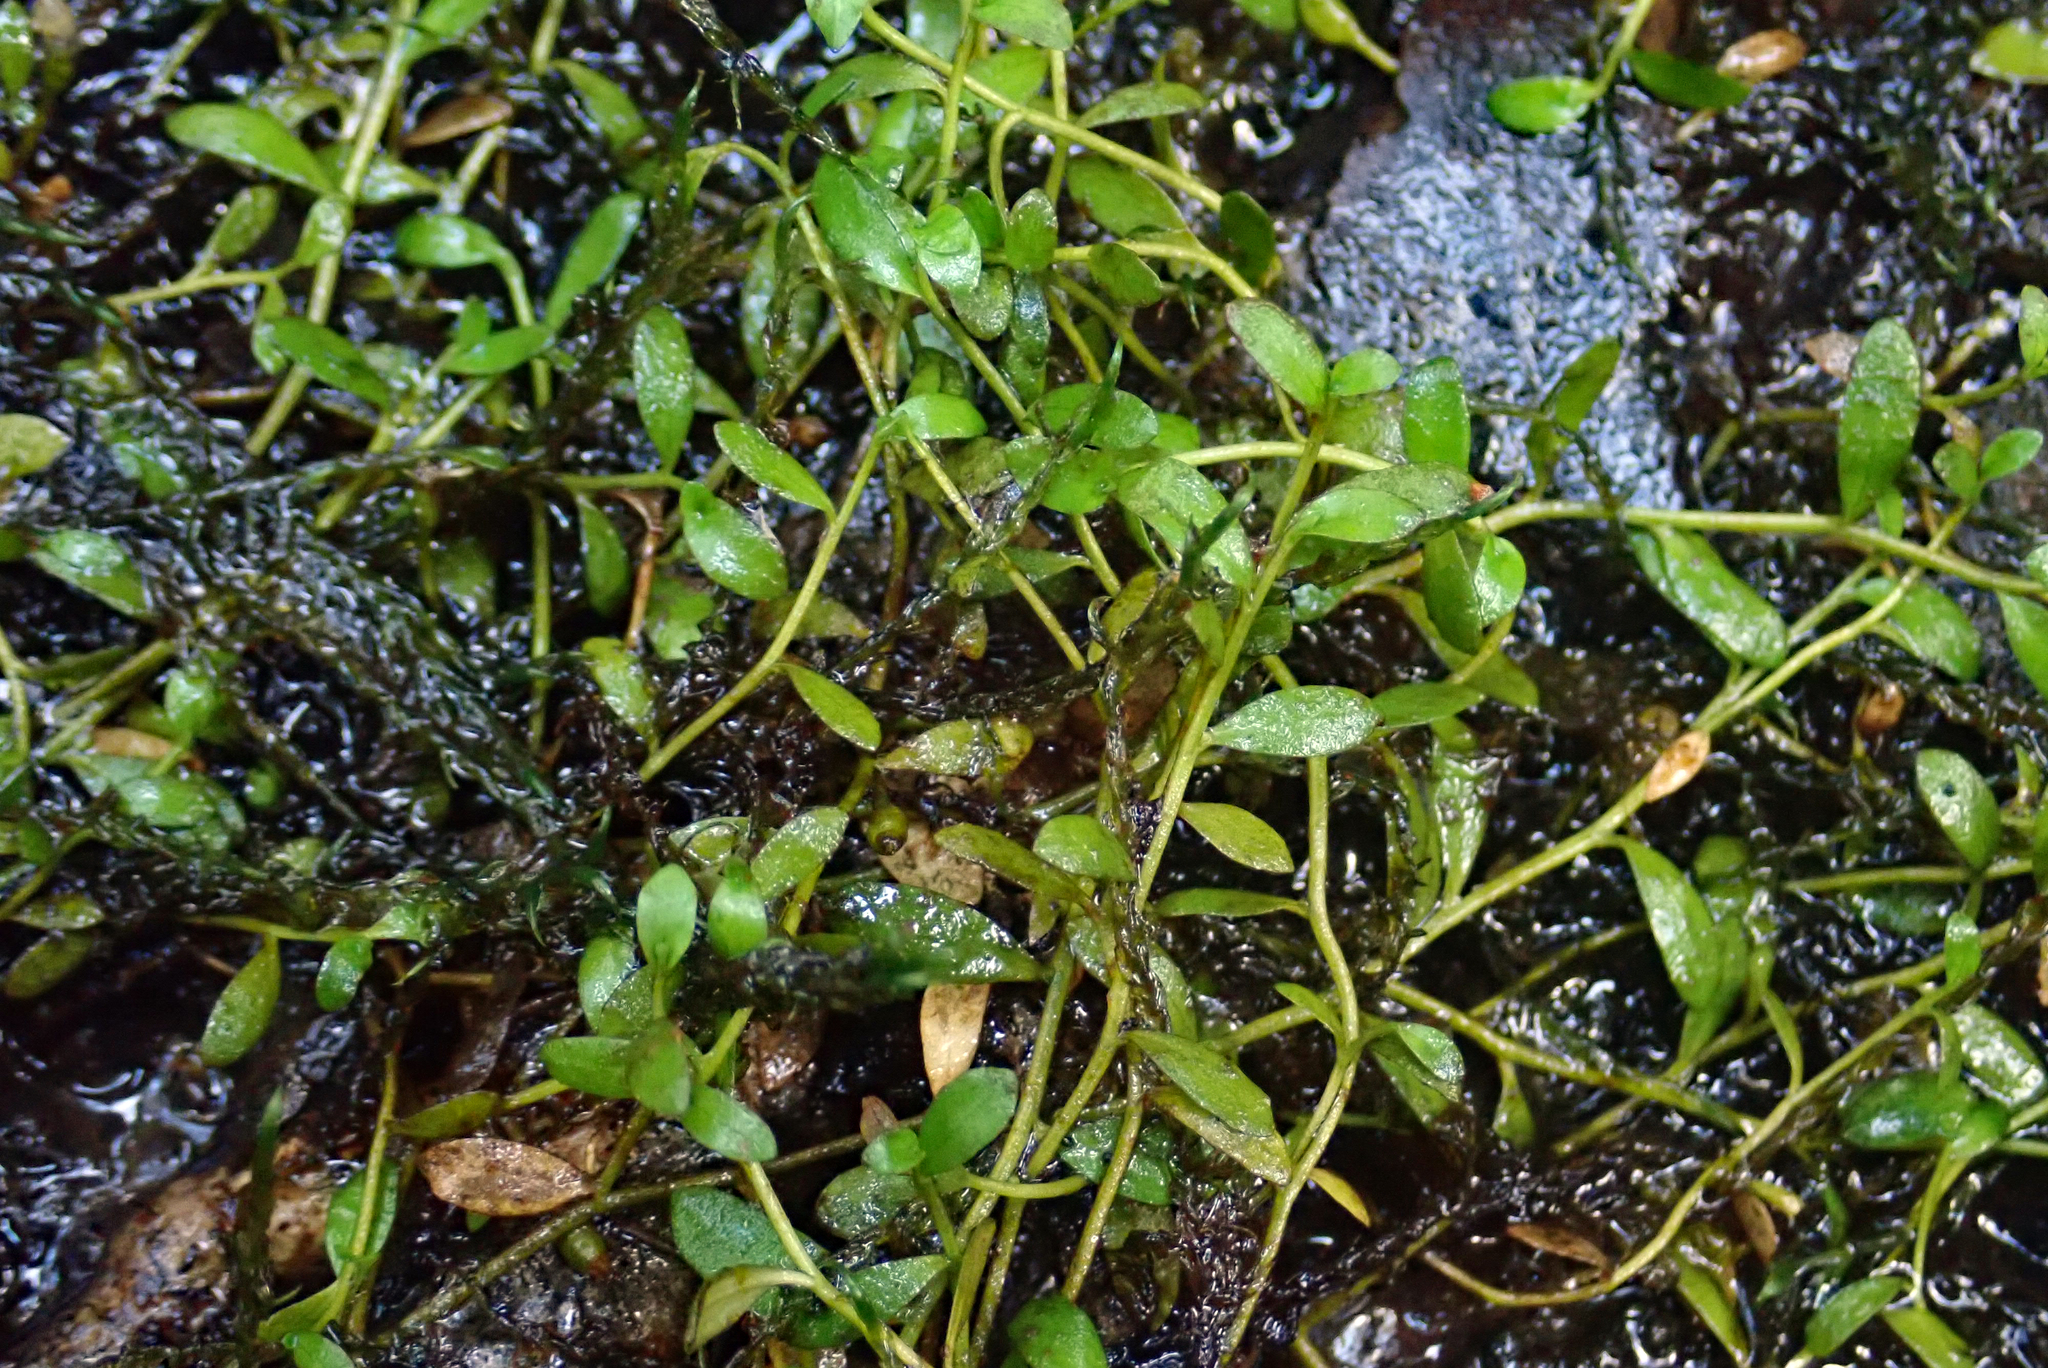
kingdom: Plantae
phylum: Tracheophyta
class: Magnoliopsida
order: Asterales
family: Campanulaceae
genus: Lobelia
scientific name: Lobelia fatiscens
